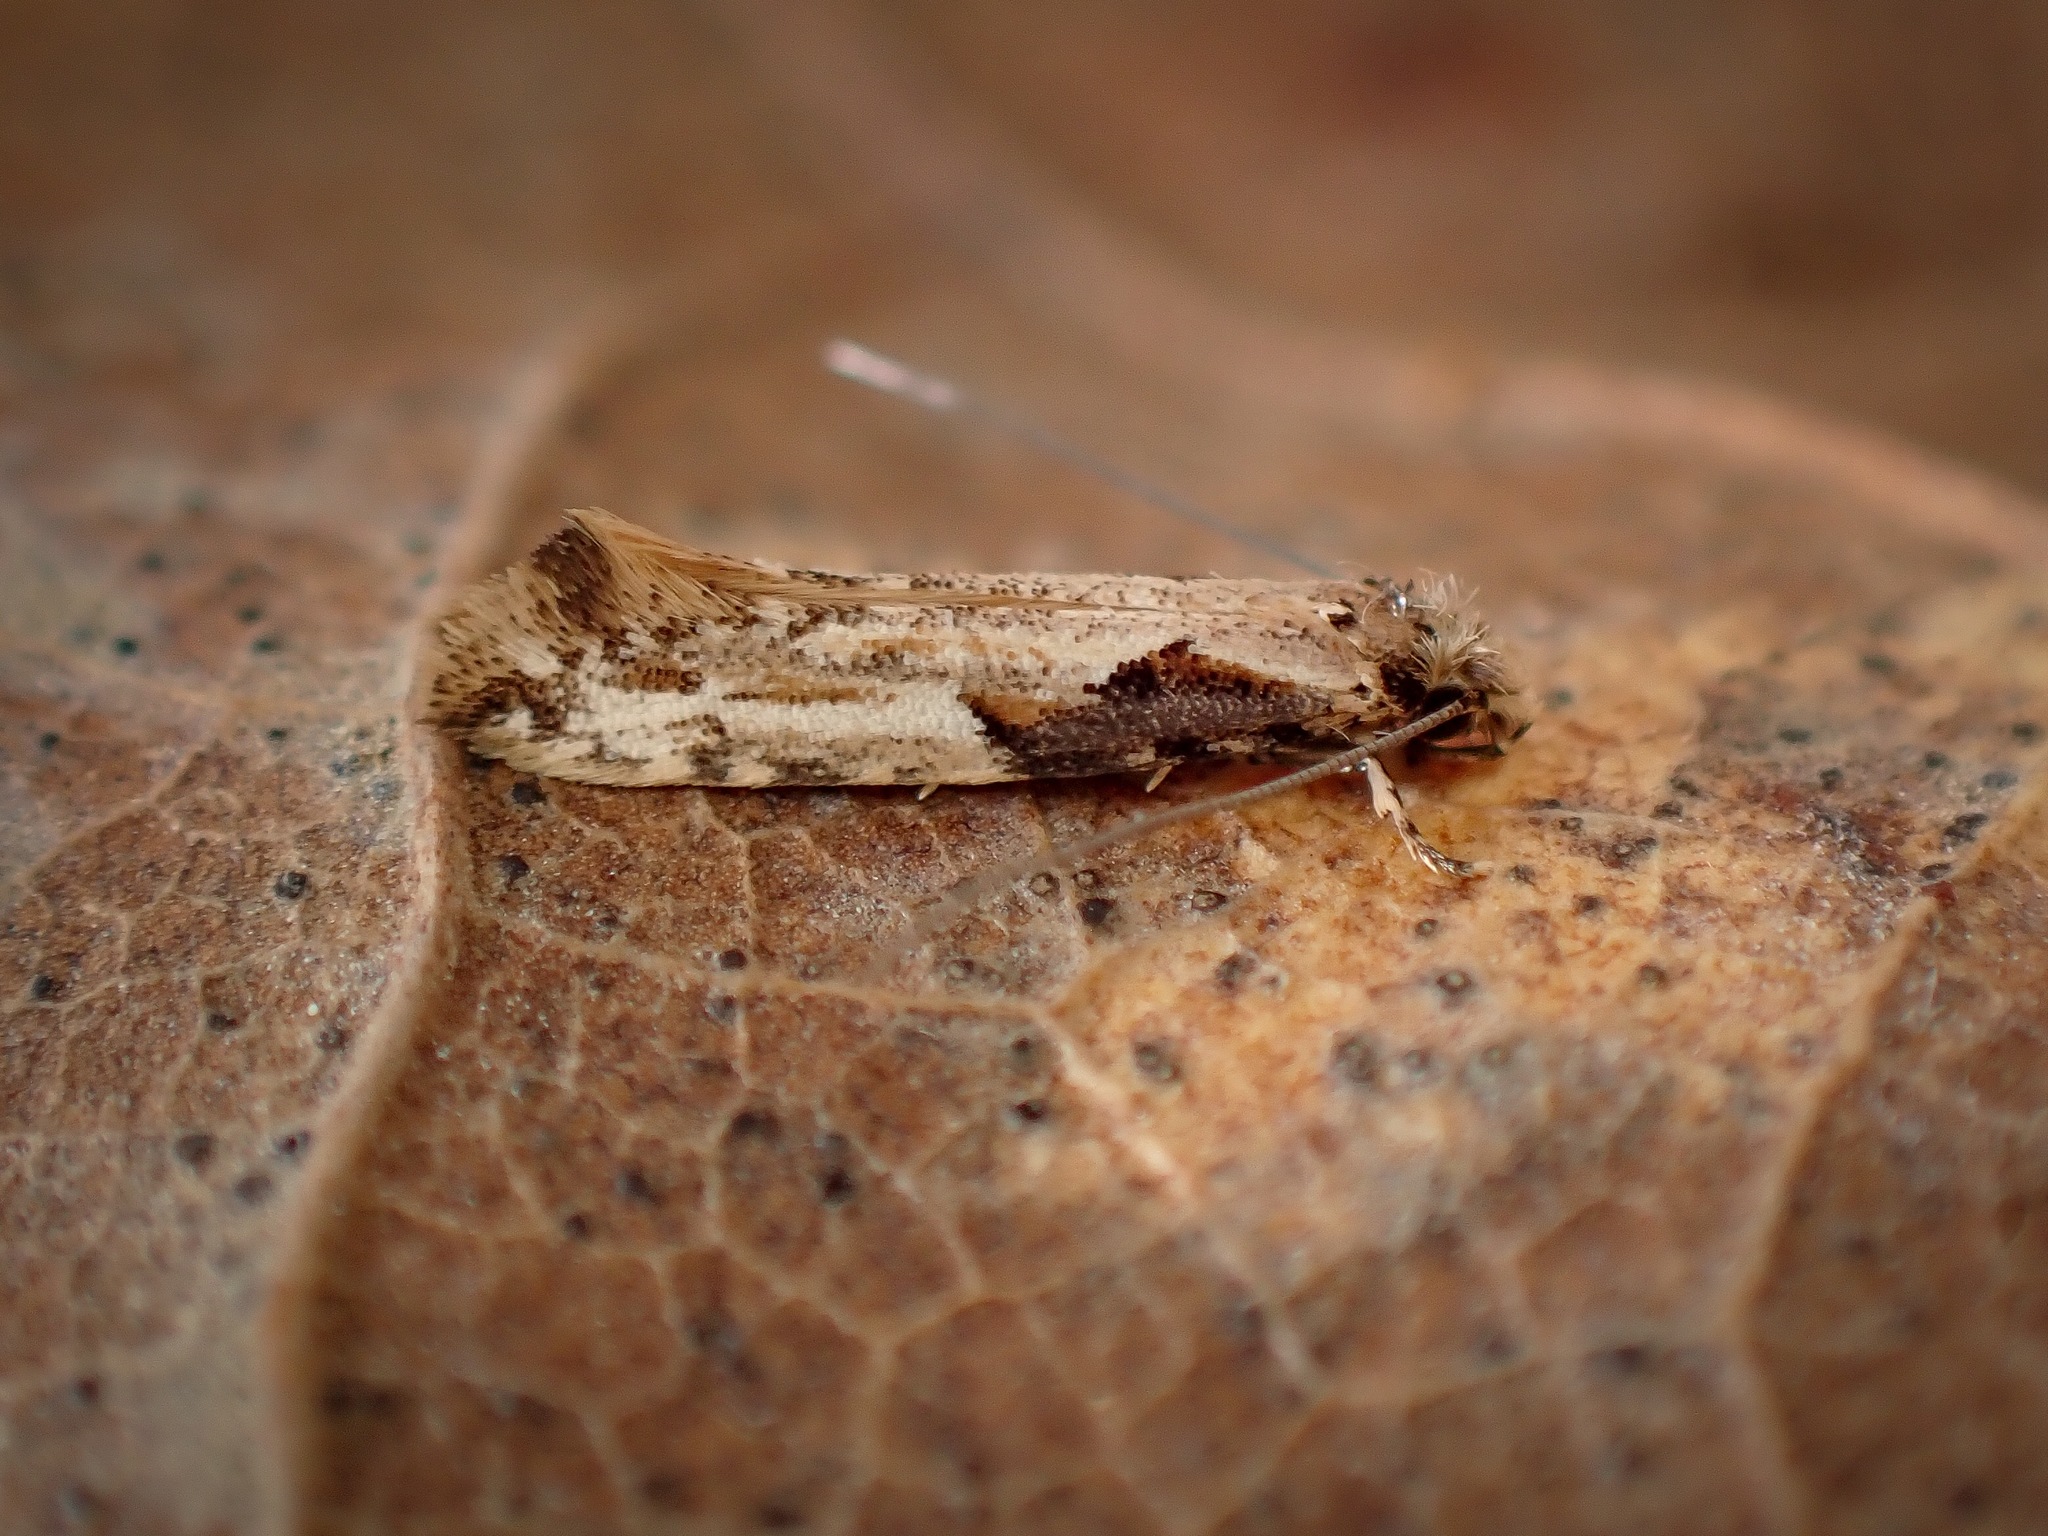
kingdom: Animalia
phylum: Arthropoda
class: Insecta
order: Lepidoptera
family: Tineidae
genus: Crypsitricha
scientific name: Crypsitricha pharotoma
